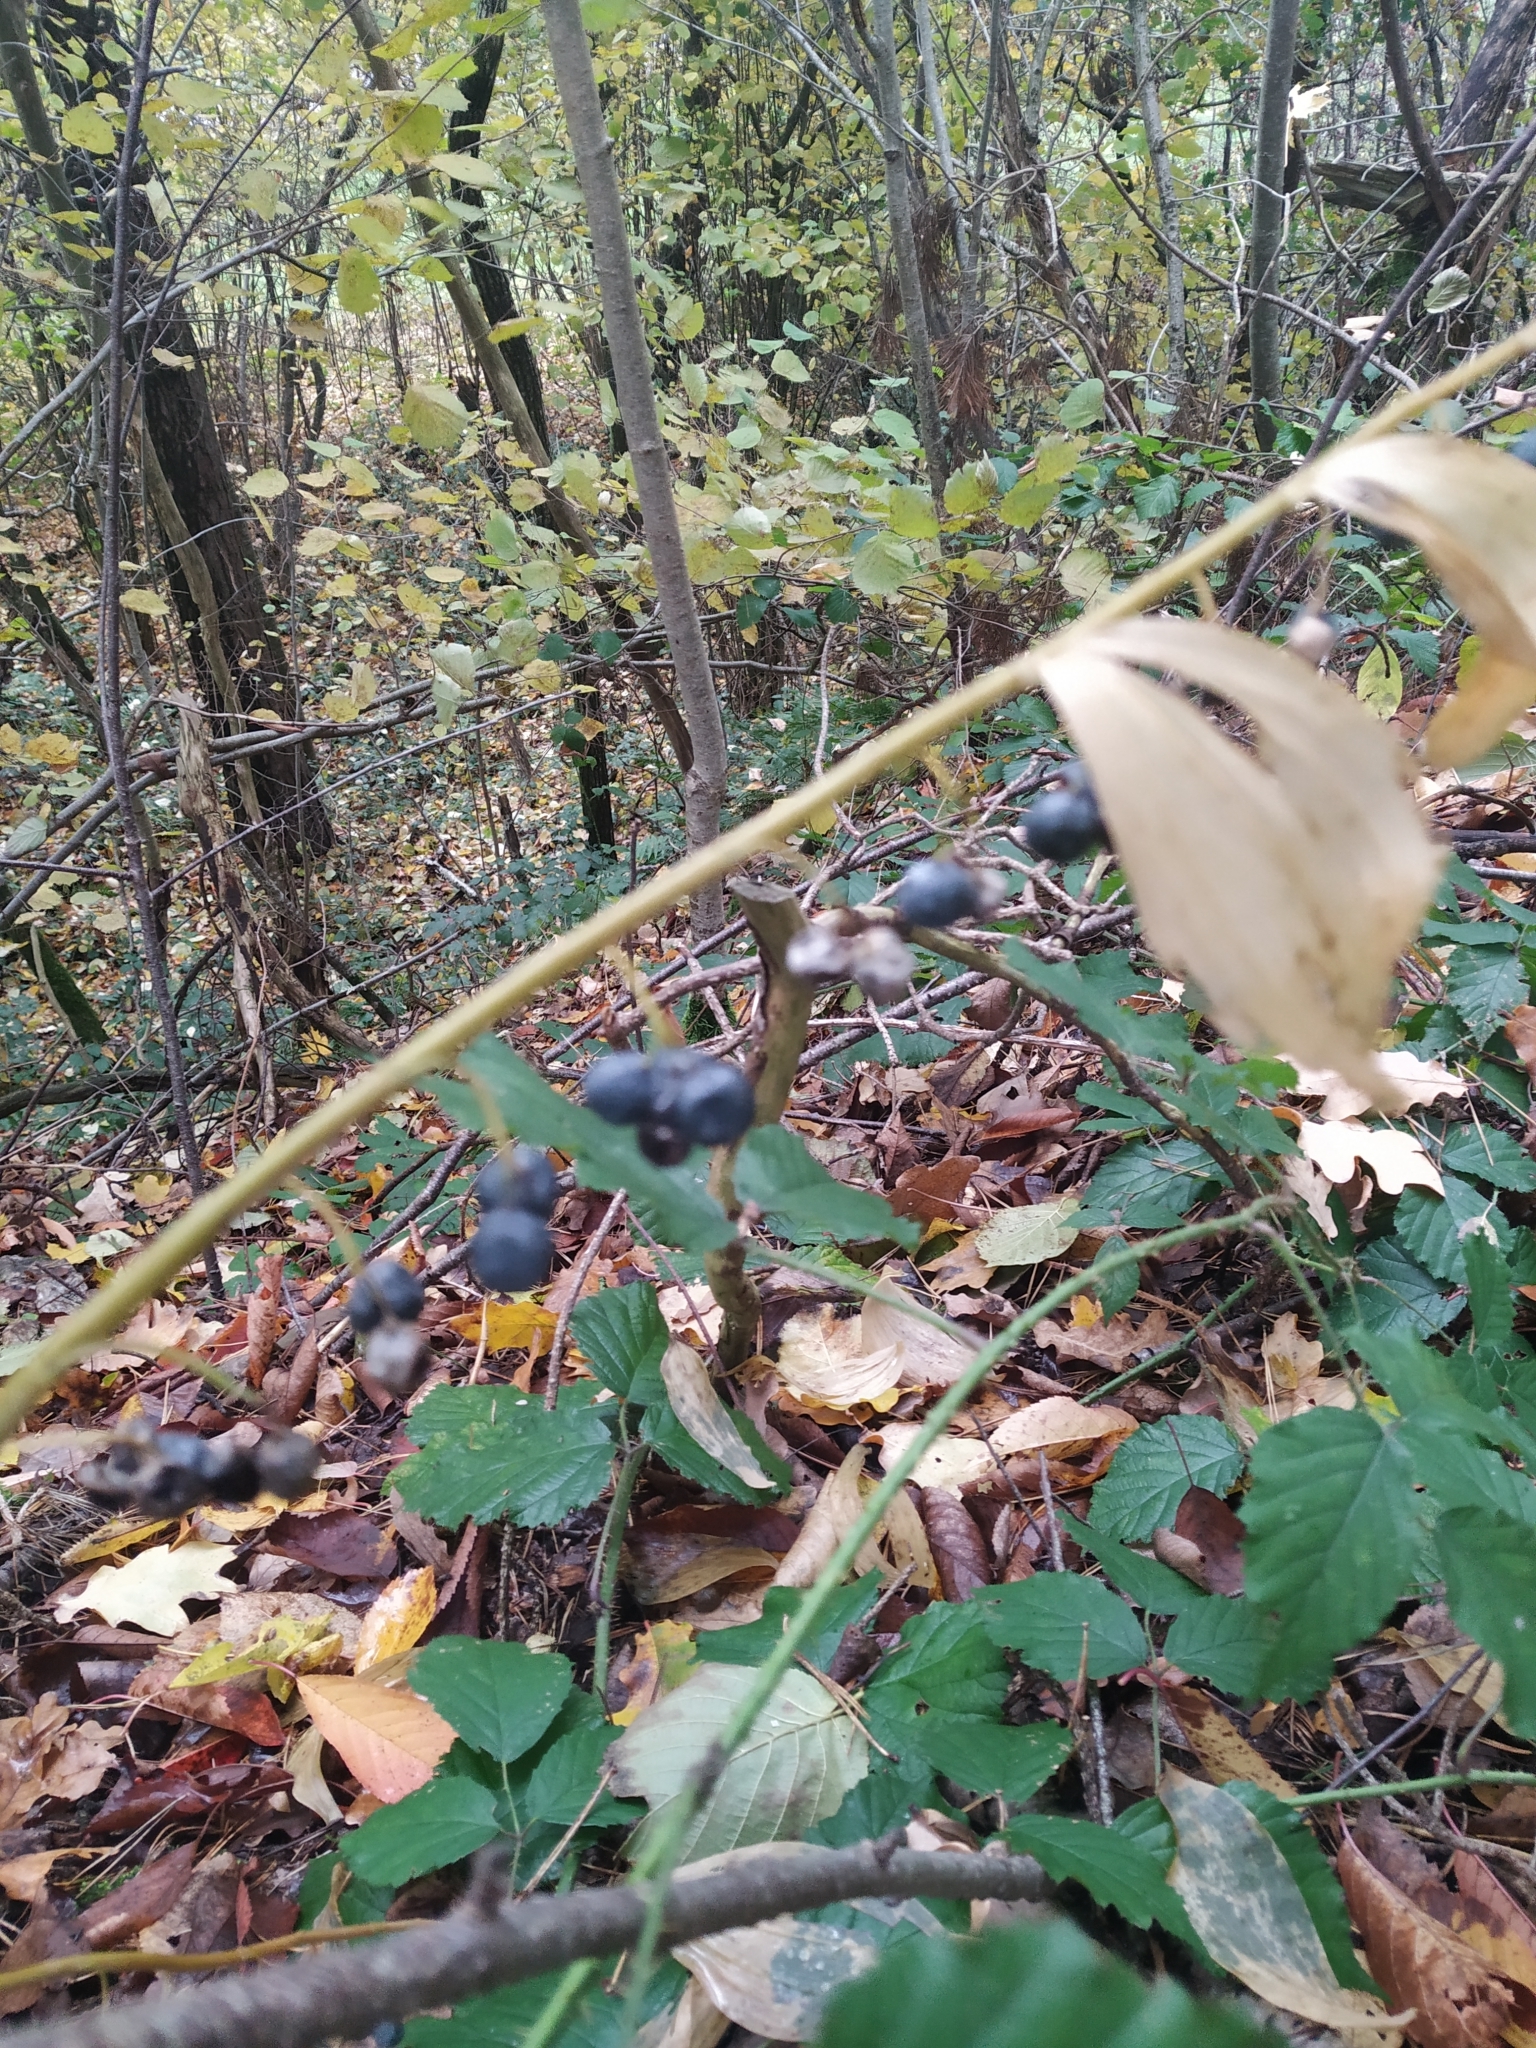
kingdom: Plantae
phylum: Tracheophyta
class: Liliopsida
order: Asparagales
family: Asparagaceae
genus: Polygonatum
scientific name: Polygonatum multiflorum
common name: Solomon's-seal
